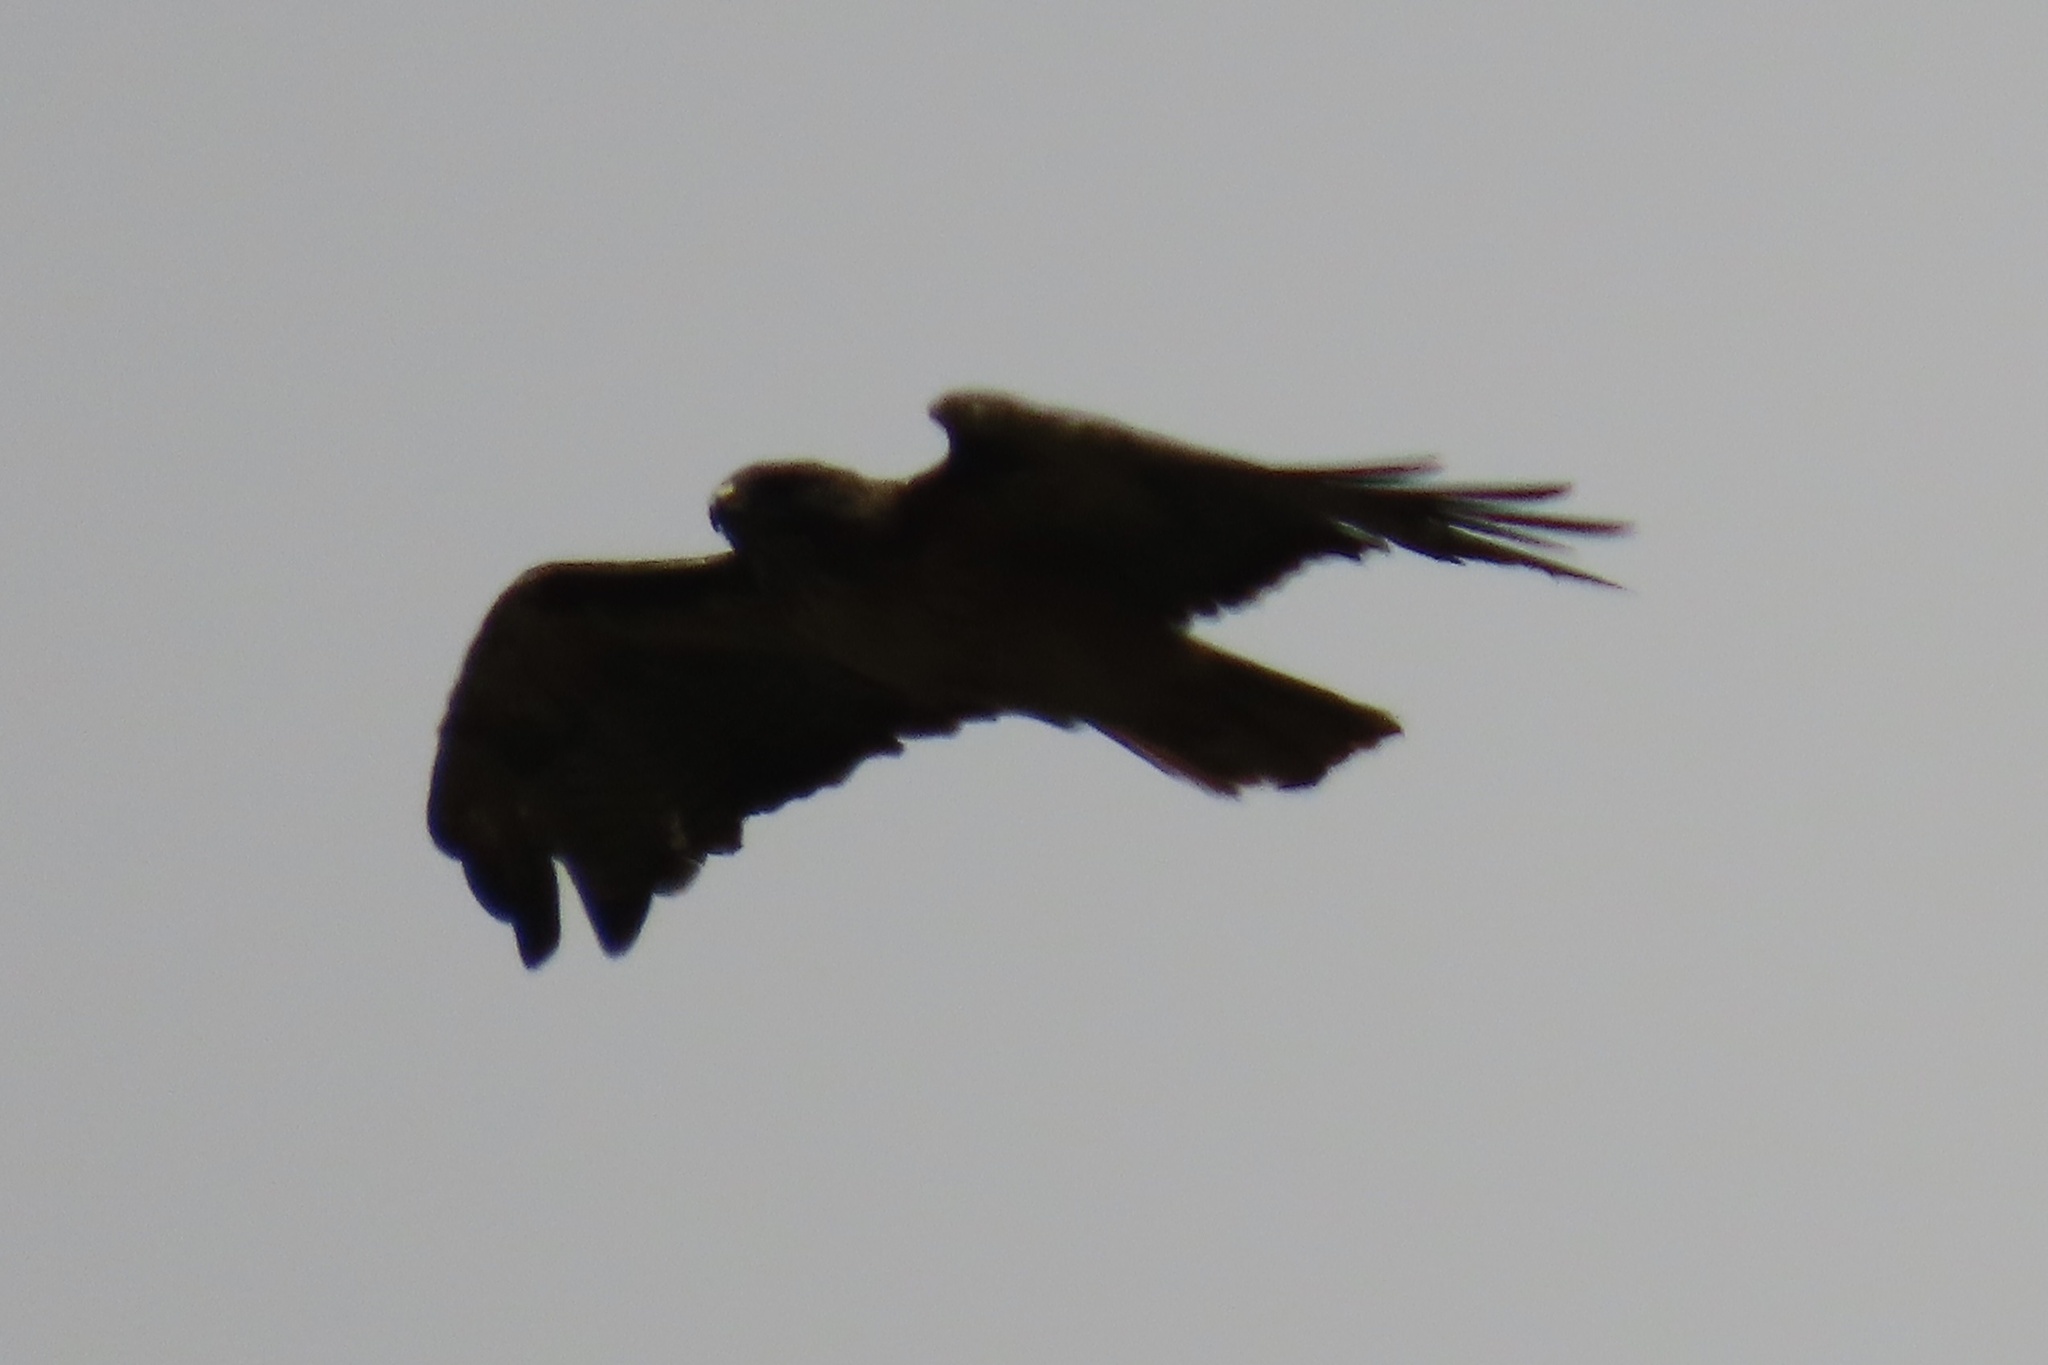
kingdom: Animalia
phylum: Chordata
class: Aves
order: Accipitriformes
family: Accipitridae
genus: Buteo
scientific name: Buteo jamaicensis
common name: Red-tailed hawk
